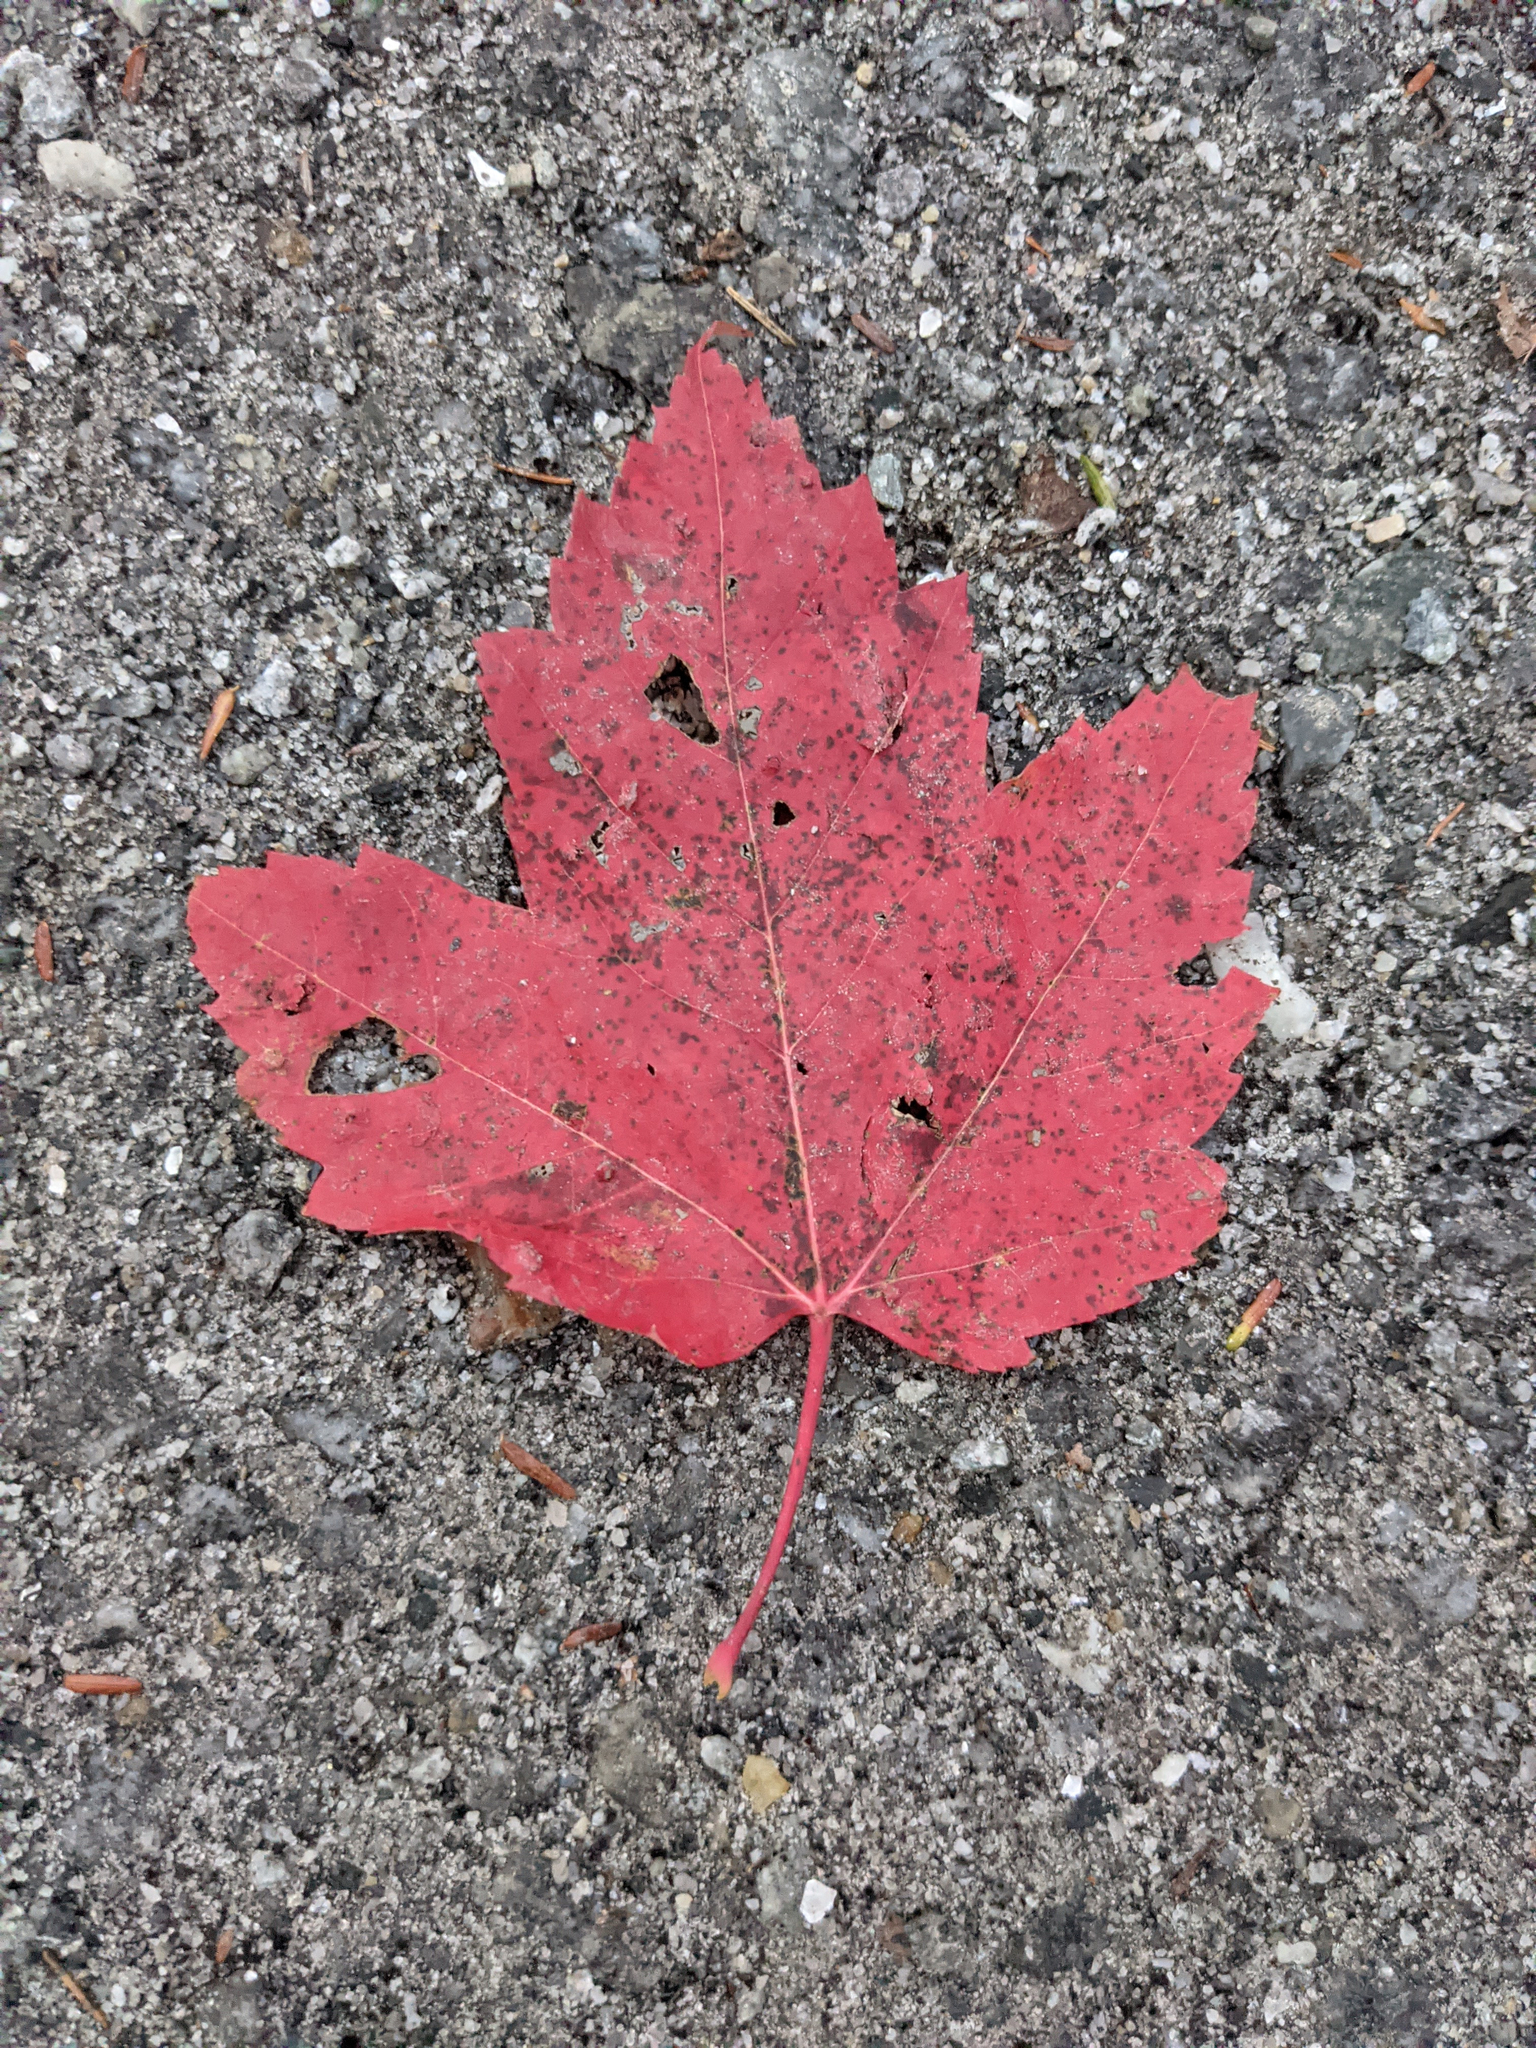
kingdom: Plantae
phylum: Tracheophyta
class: Magnoliopsida
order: Sapindales
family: Sapindaceae
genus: Acer
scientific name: Acer rubrum
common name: Red maple
